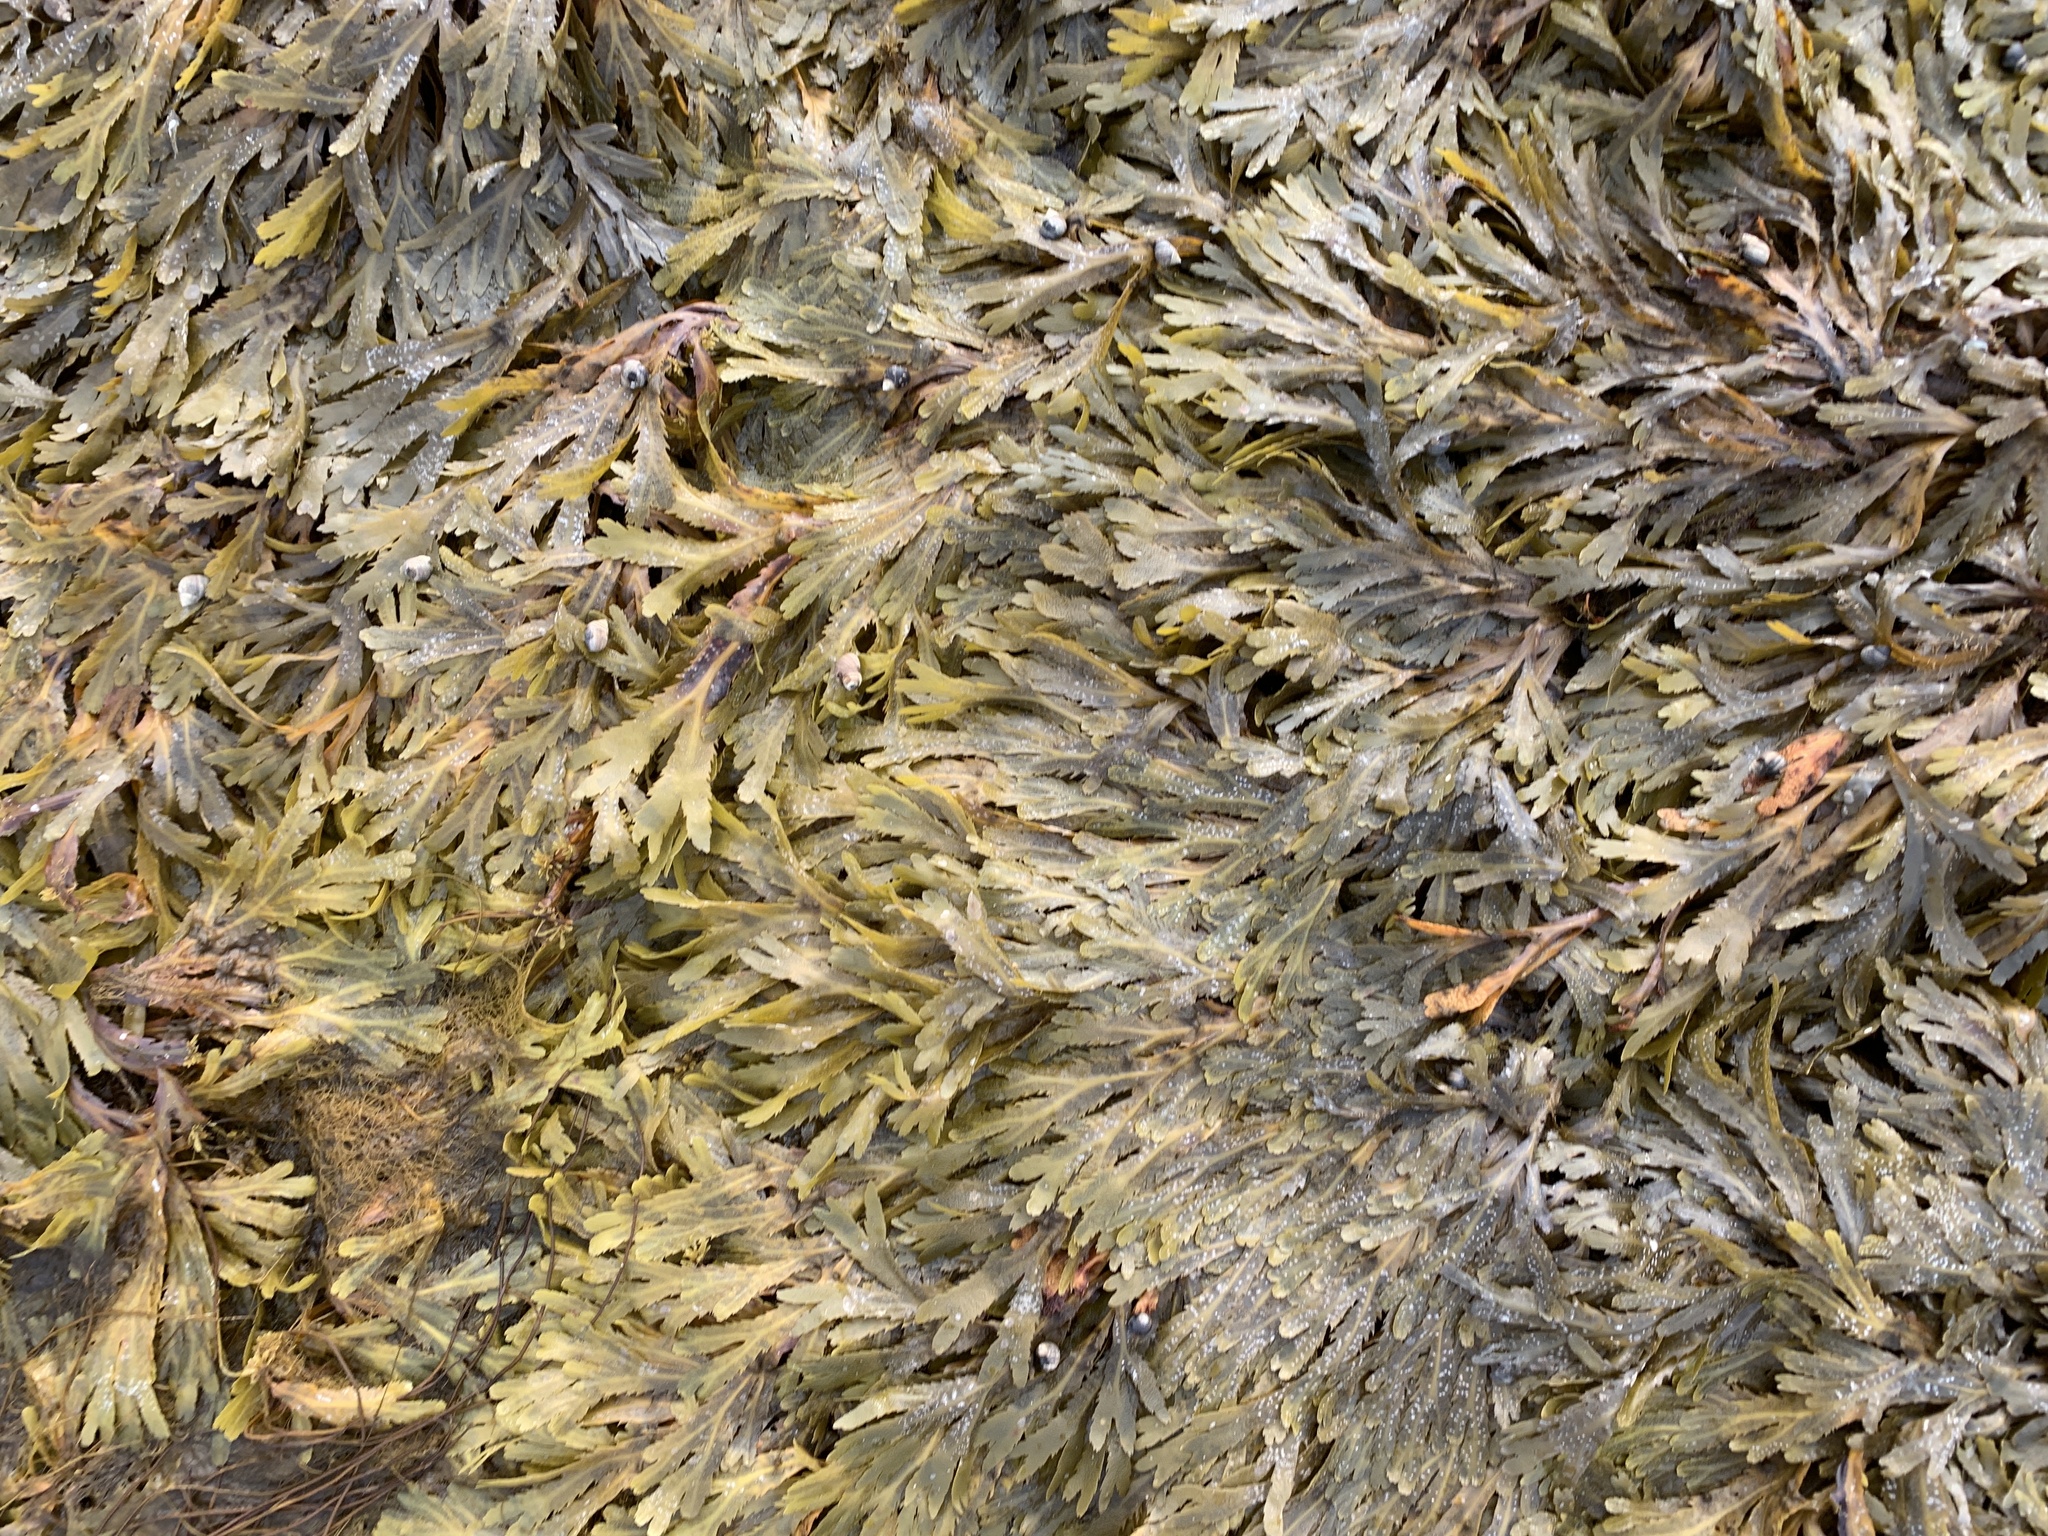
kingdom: Chromista
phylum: Ochrophyta
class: Phaeophyceae
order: Fucales
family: Fucaceae
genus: Fucus
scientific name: Fucus serratus
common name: Toothed wrack
